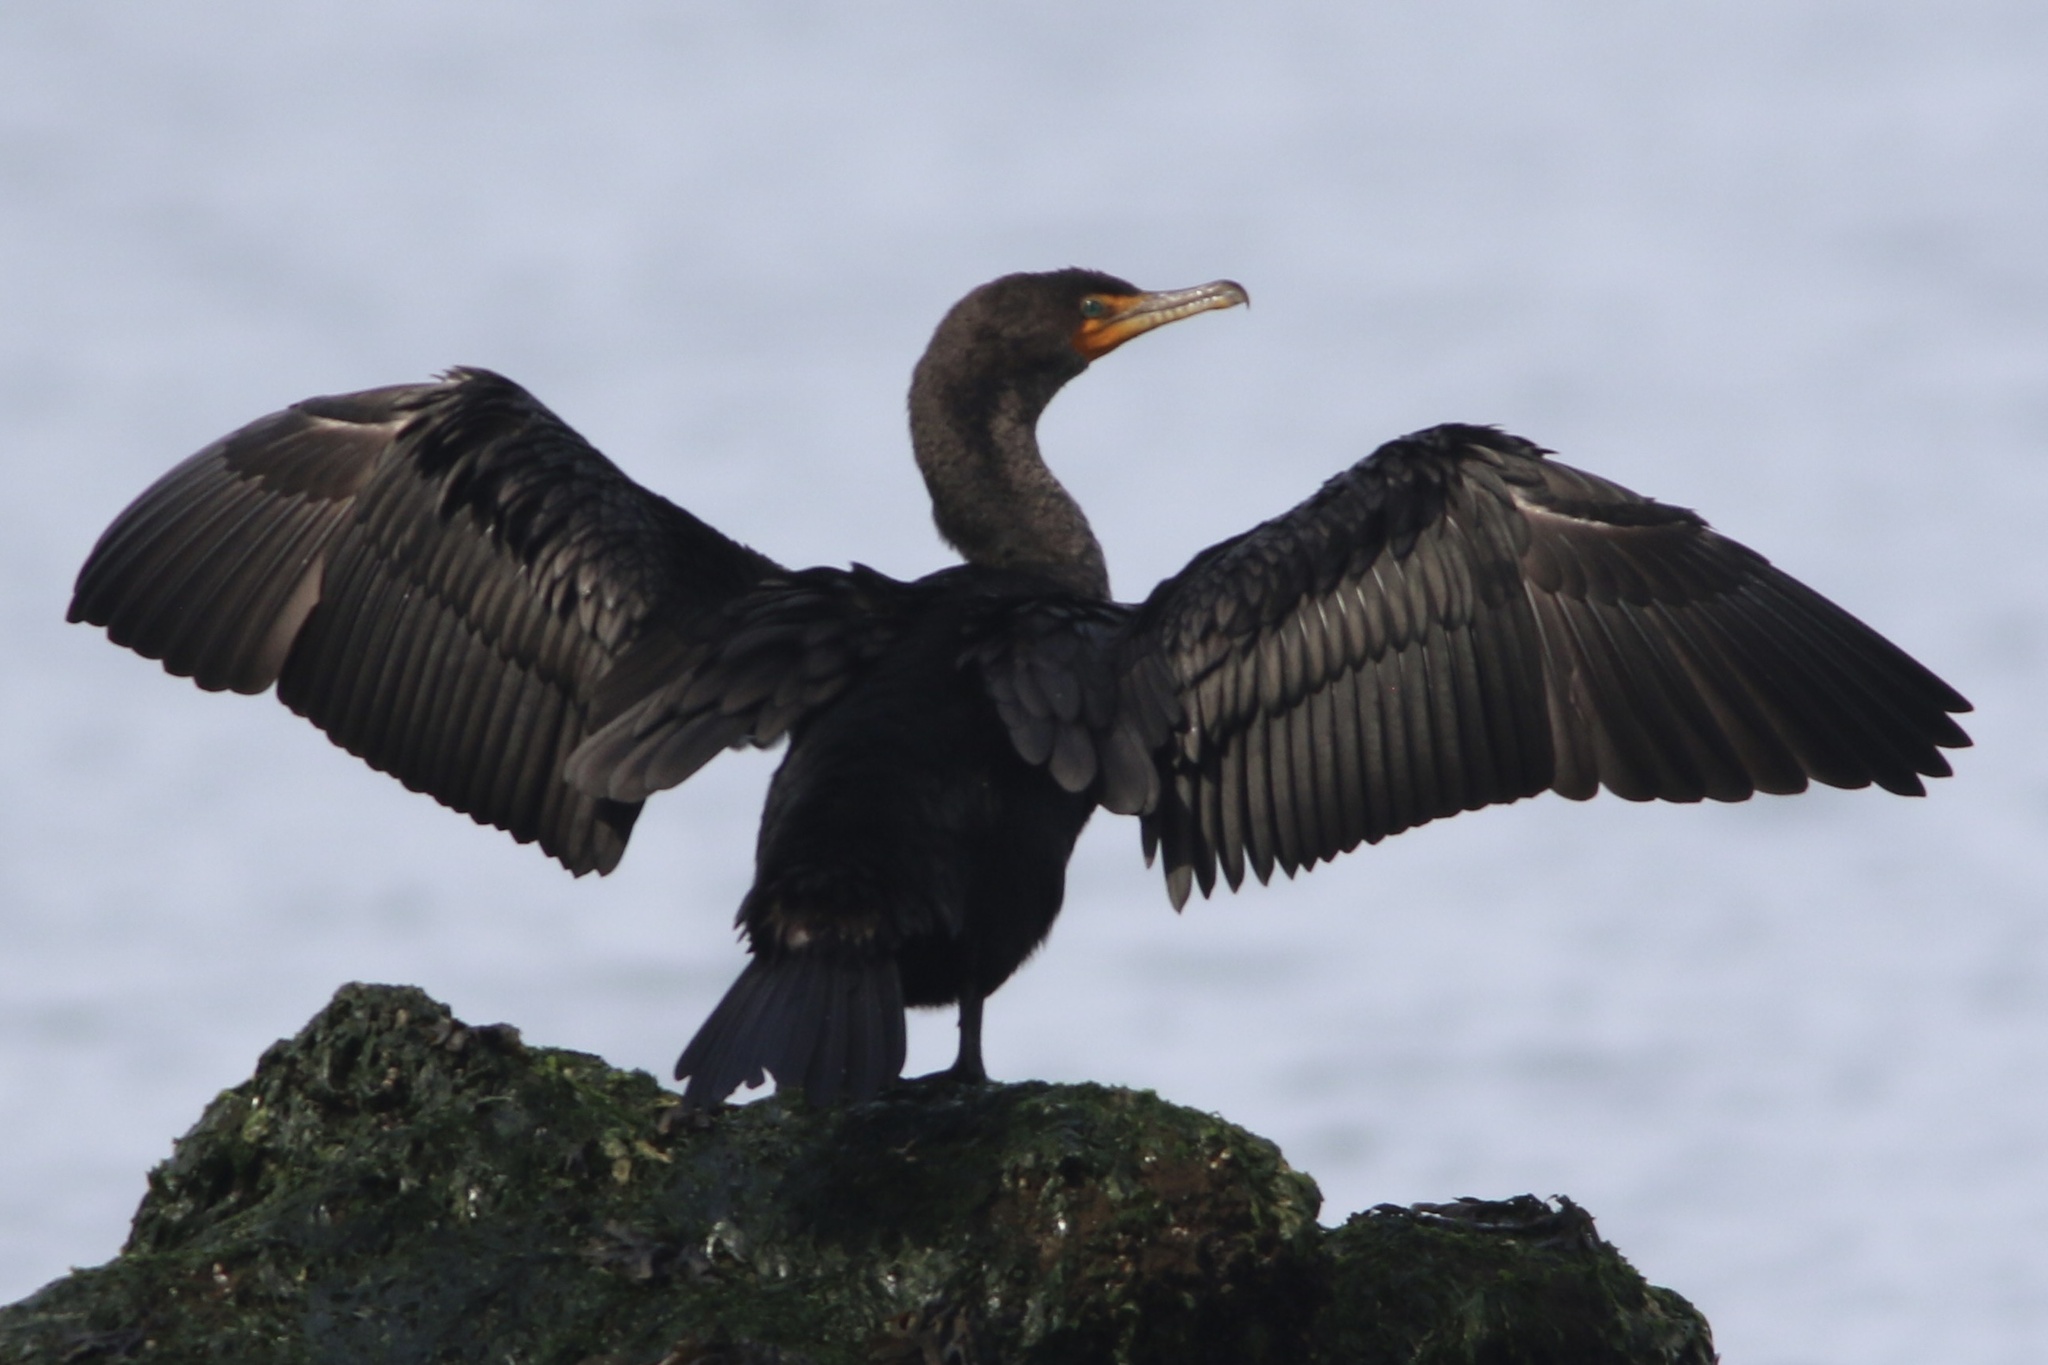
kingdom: Animalia
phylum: Chordata
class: Aves
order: Suliformes
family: Phalacrocoracidae
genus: Phalacrocorax
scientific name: Phalacrocorax auritus
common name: Double-crested cormorant
